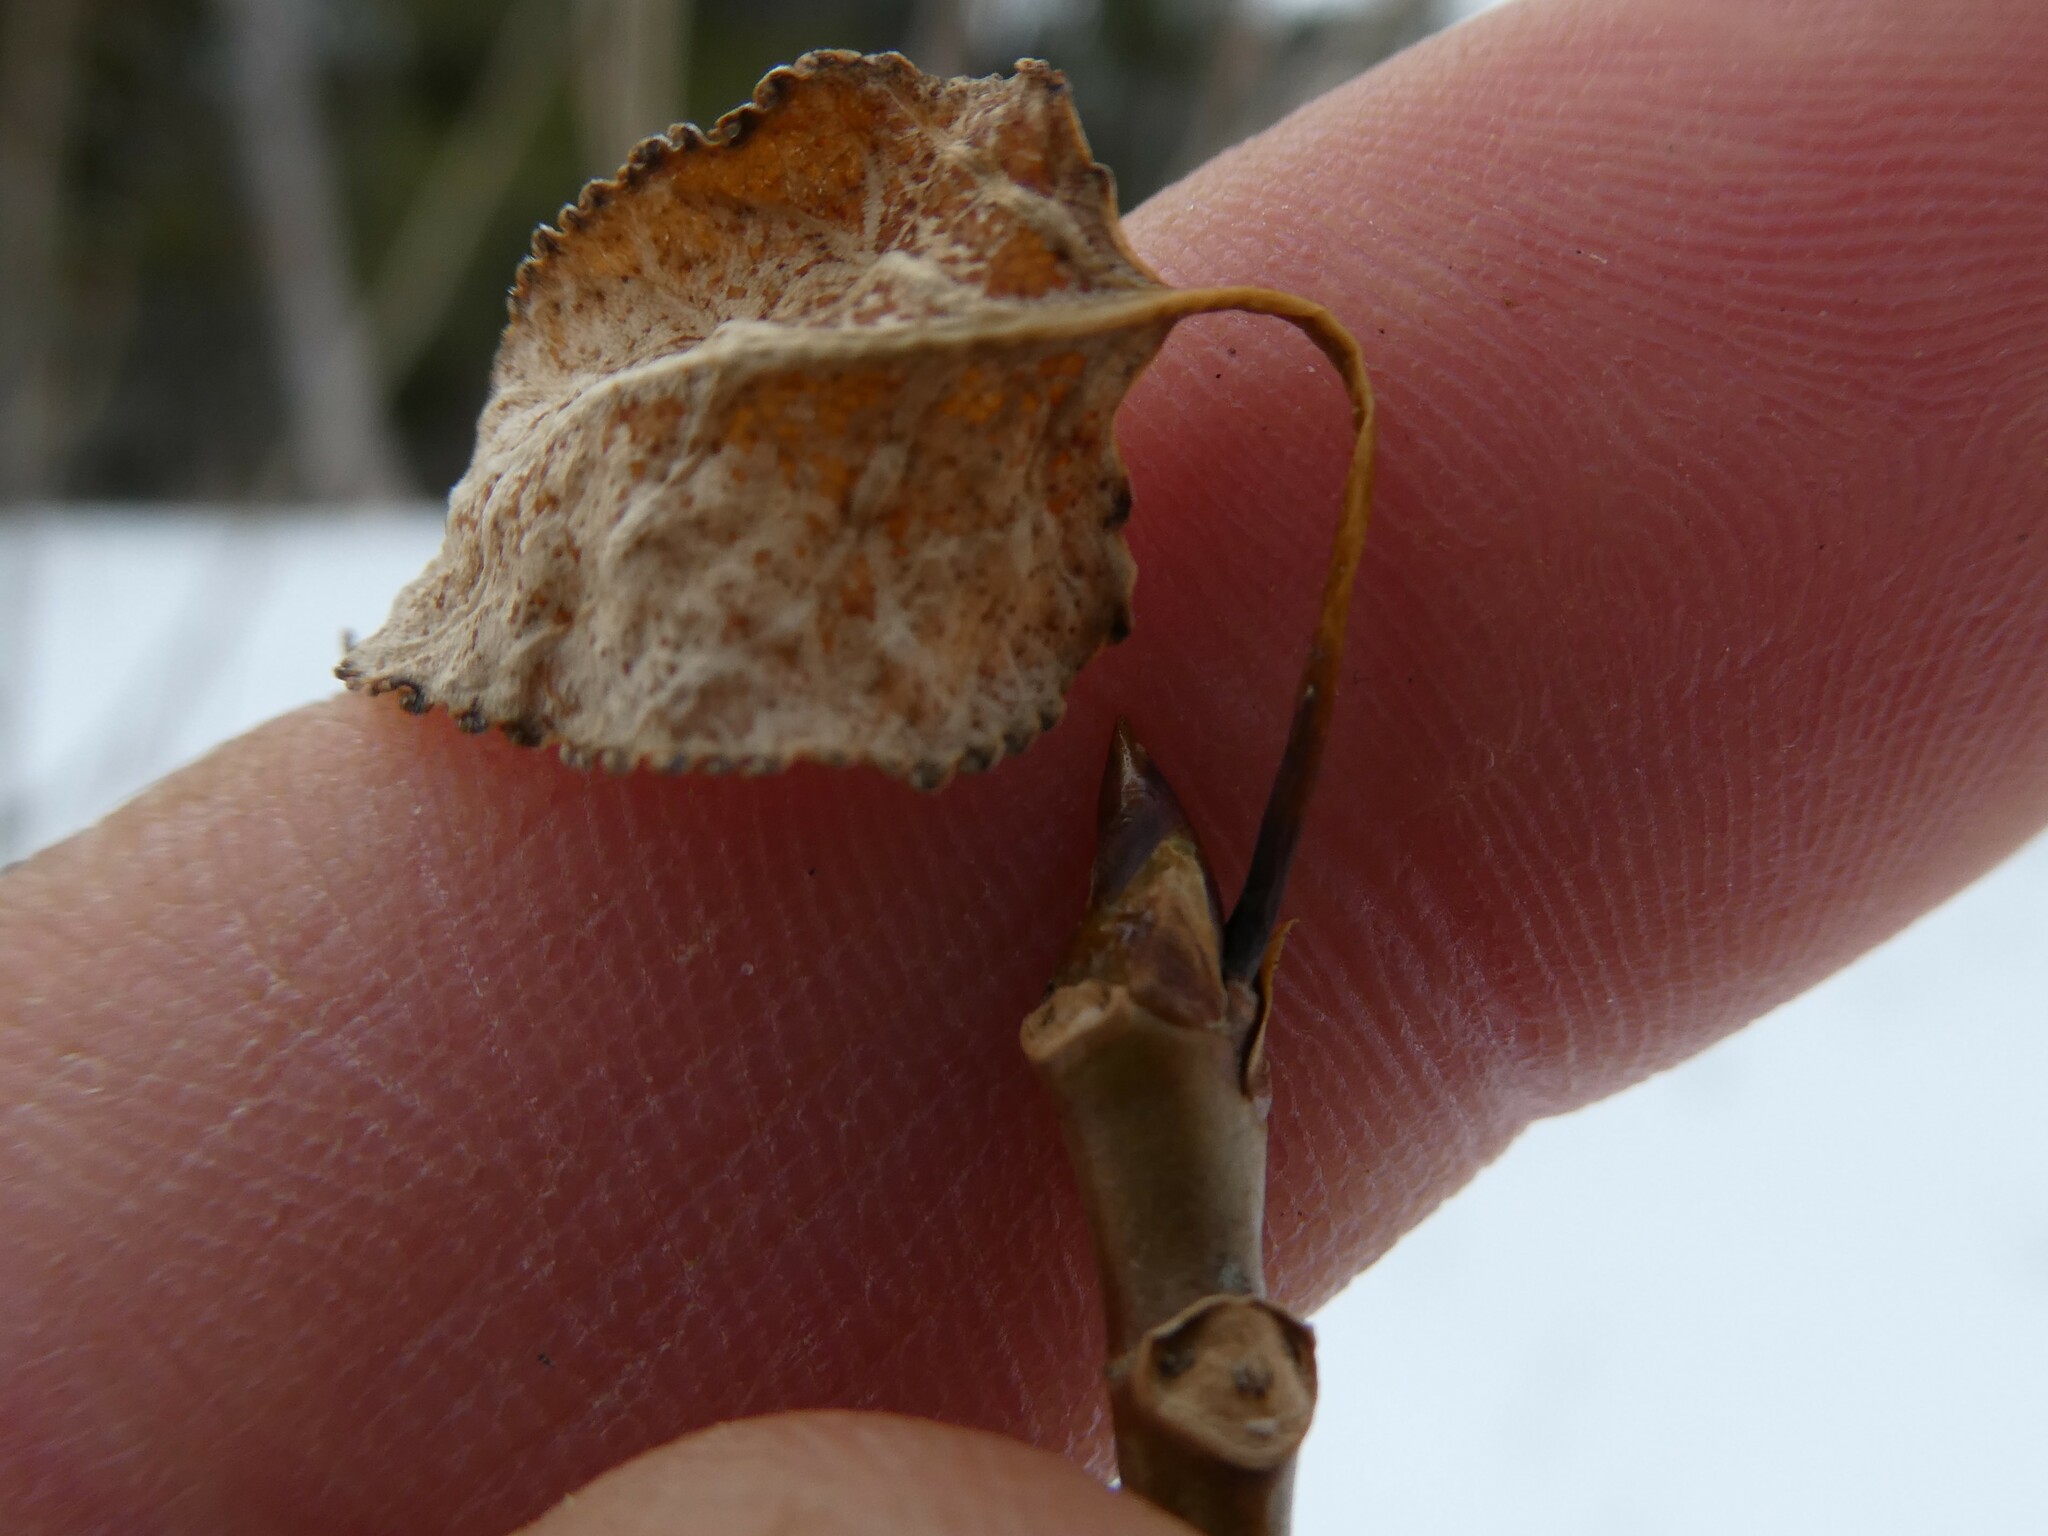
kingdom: Plantae
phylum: Tracheophyta
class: Magnoliopsida
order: Malpighiales
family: Salicaceae
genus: Populus
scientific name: Populus deltoides
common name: Eastern cottonwood
